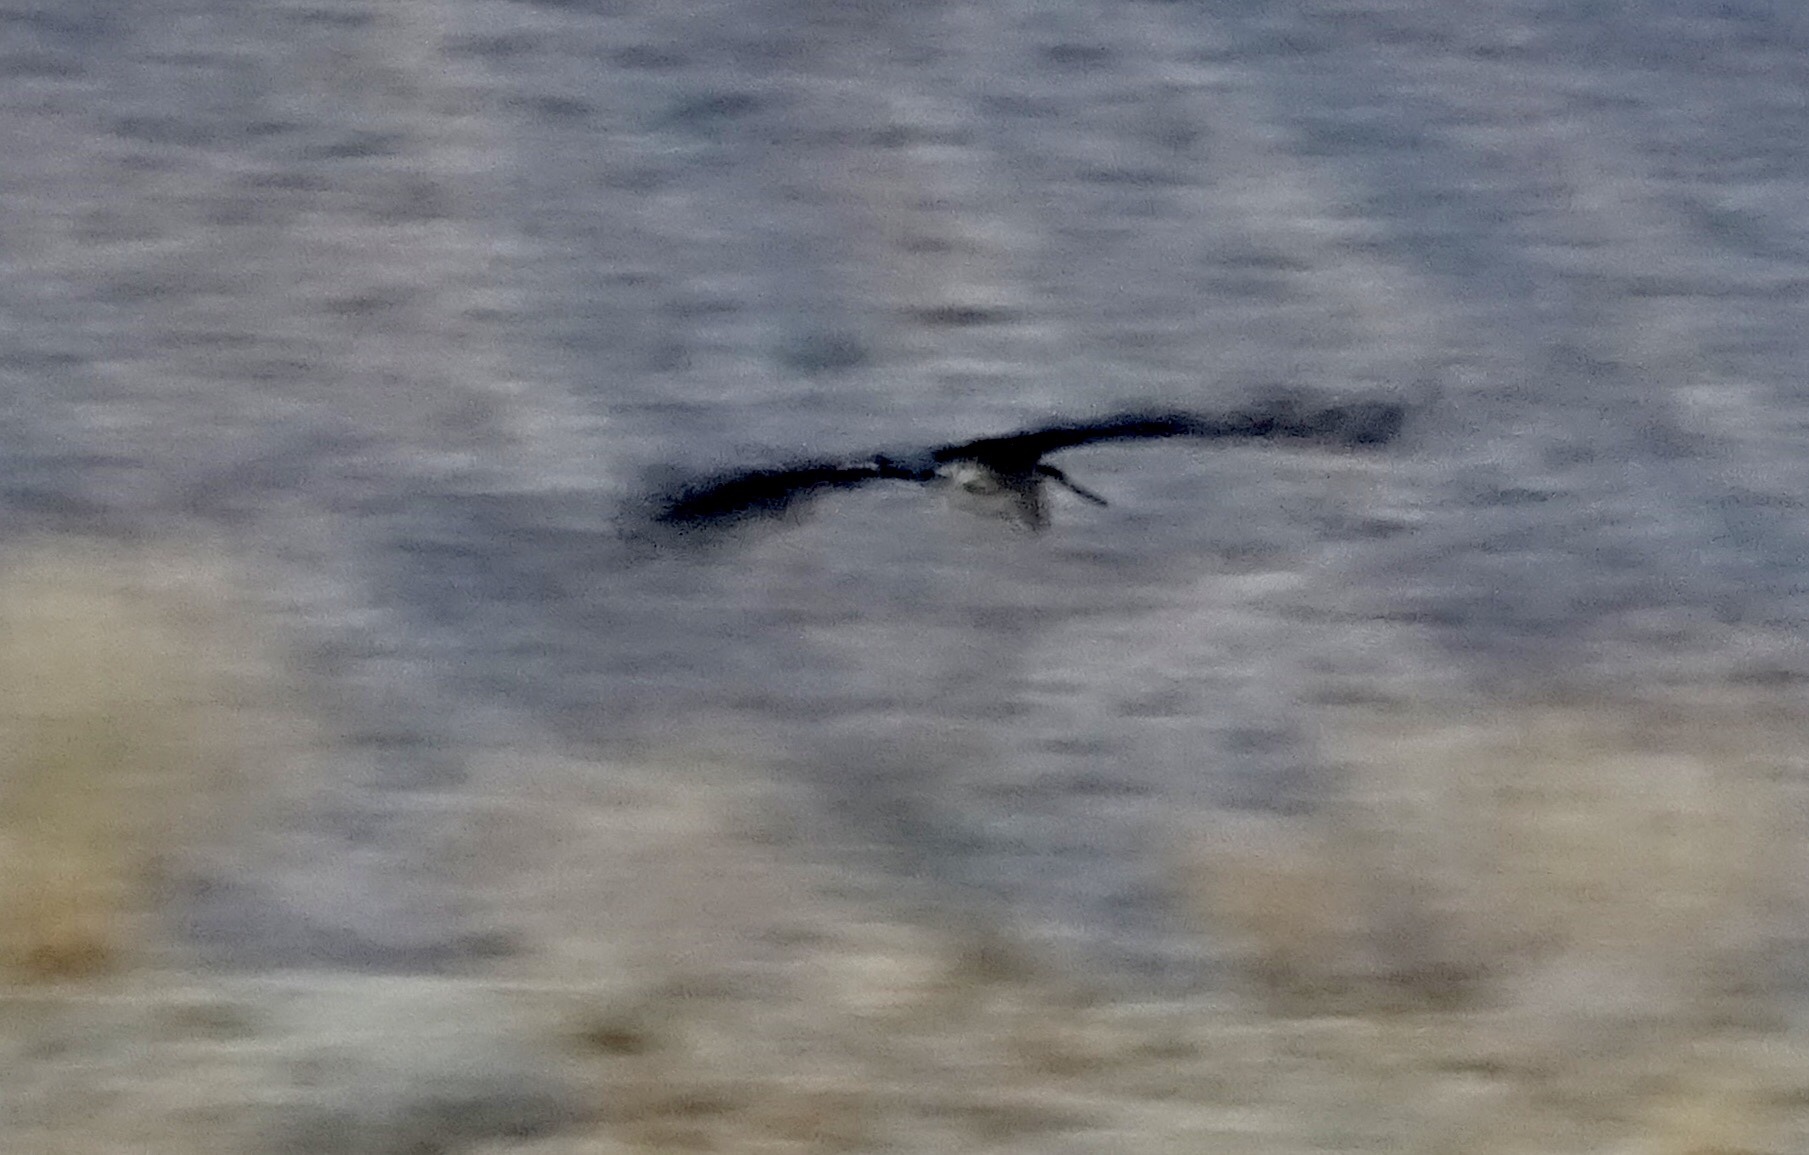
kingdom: Animalia
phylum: Chordata
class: Aves
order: Pelecaniformes
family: Ardeidae
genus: Ardea
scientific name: Ardea herodias
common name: Great blue heron
